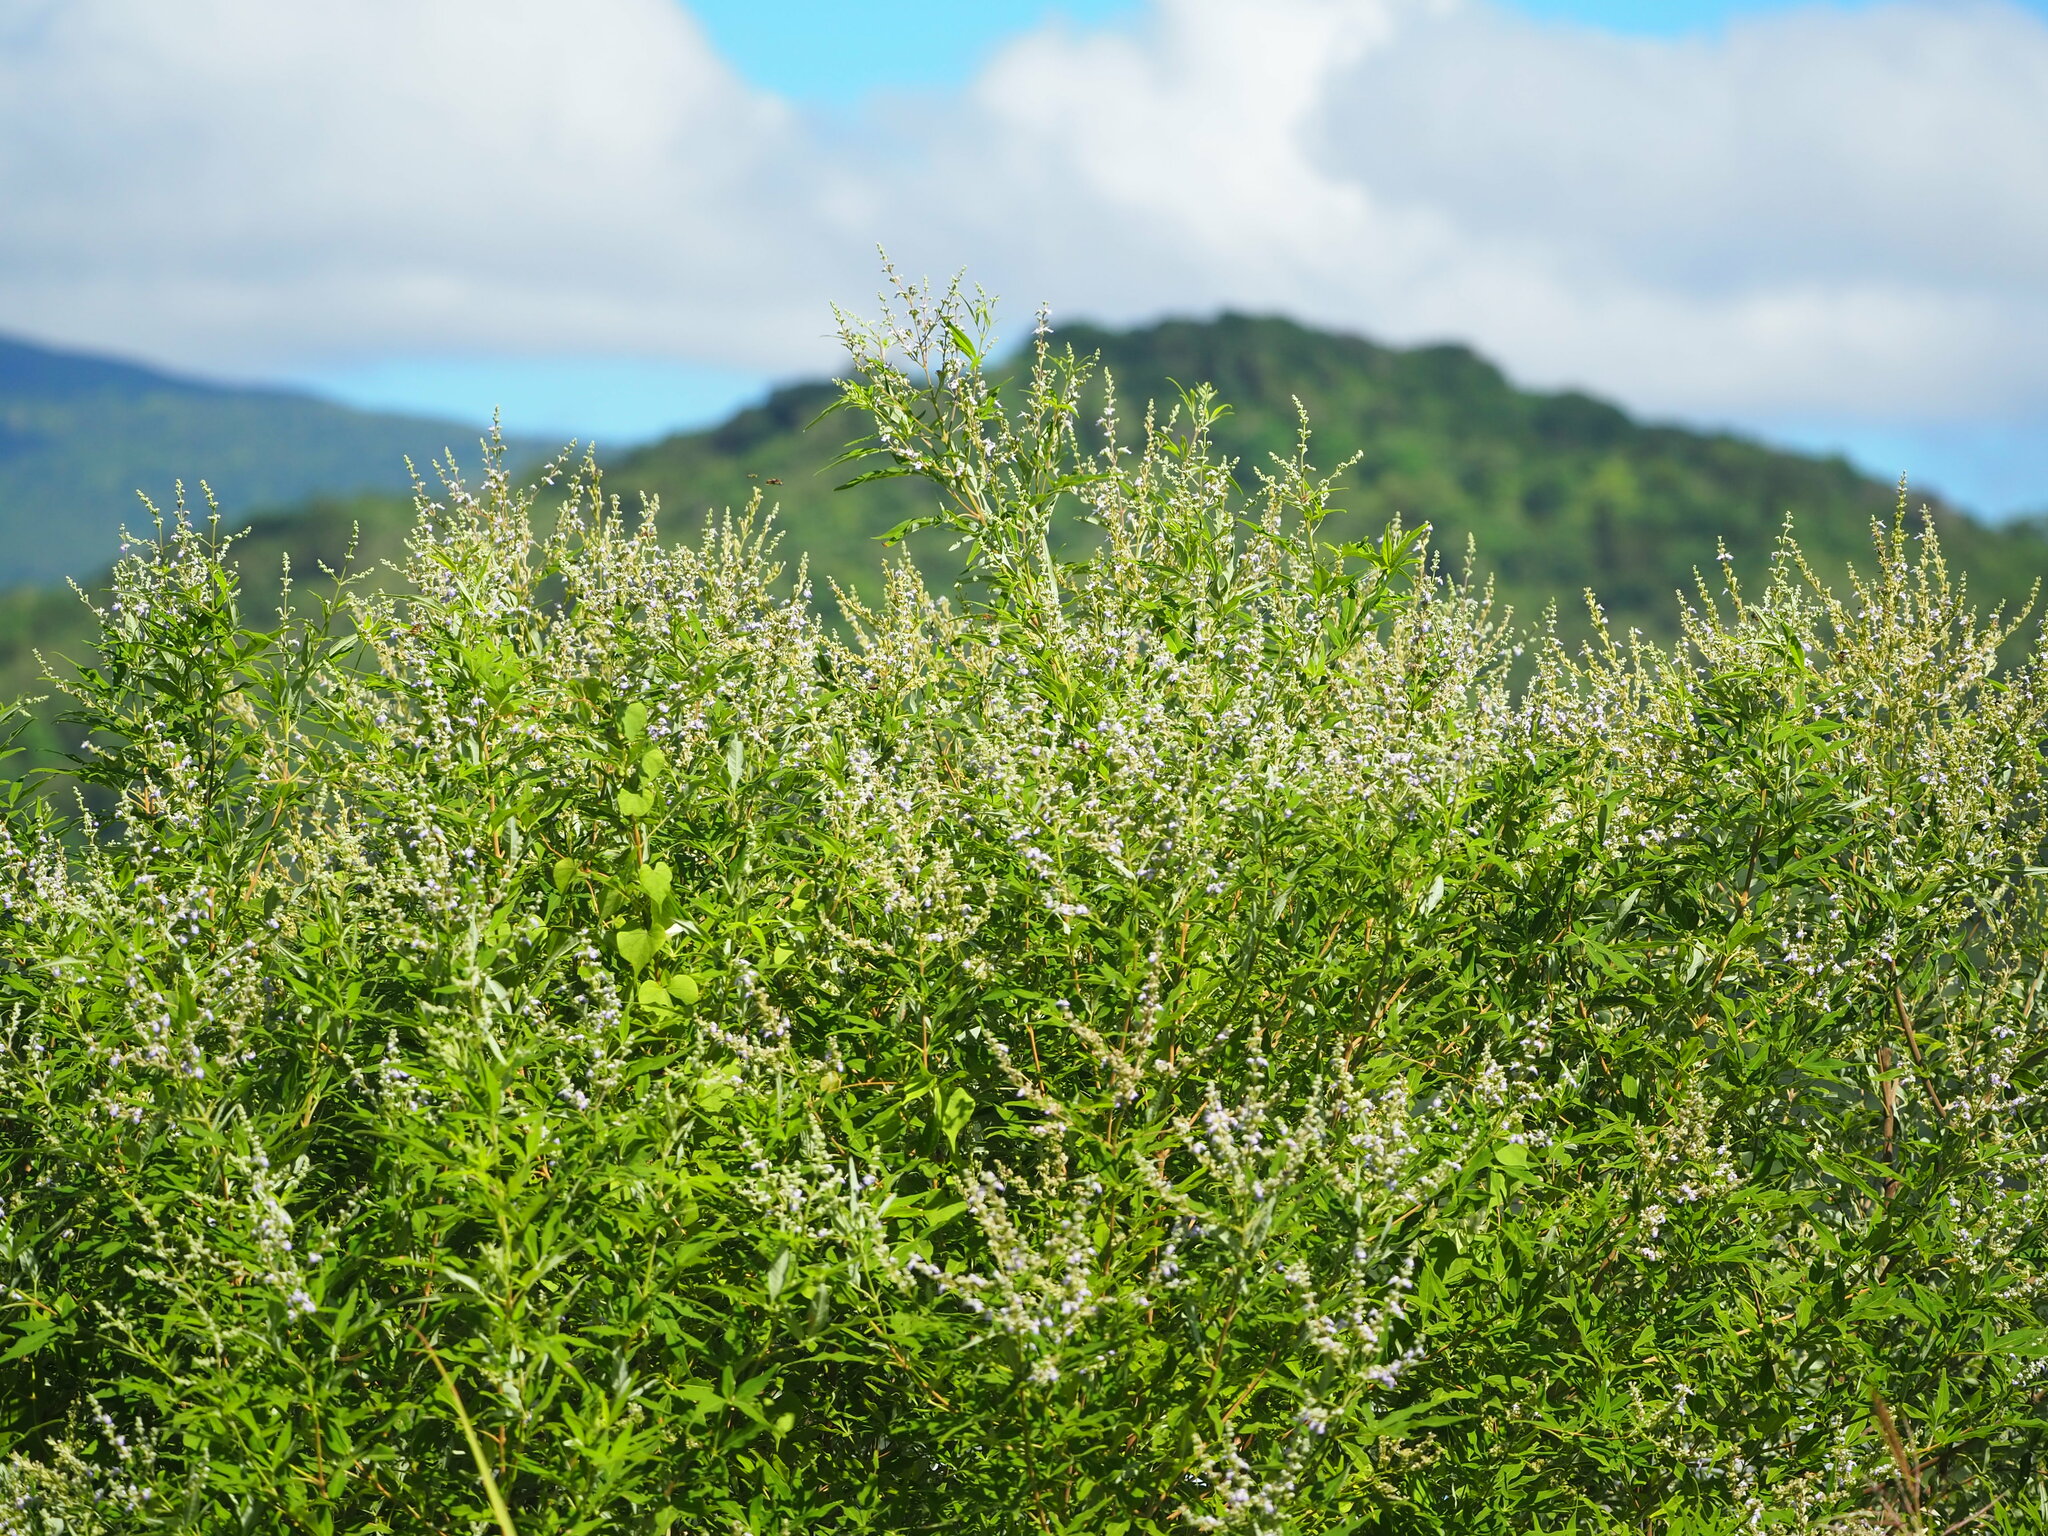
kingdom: Plantae
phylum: Tracheophyta
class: Magnoliopsida
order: Lamiales
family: Lamiaceae
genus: Vitex
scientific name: Vitex negundo
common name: Chinese chastetree
